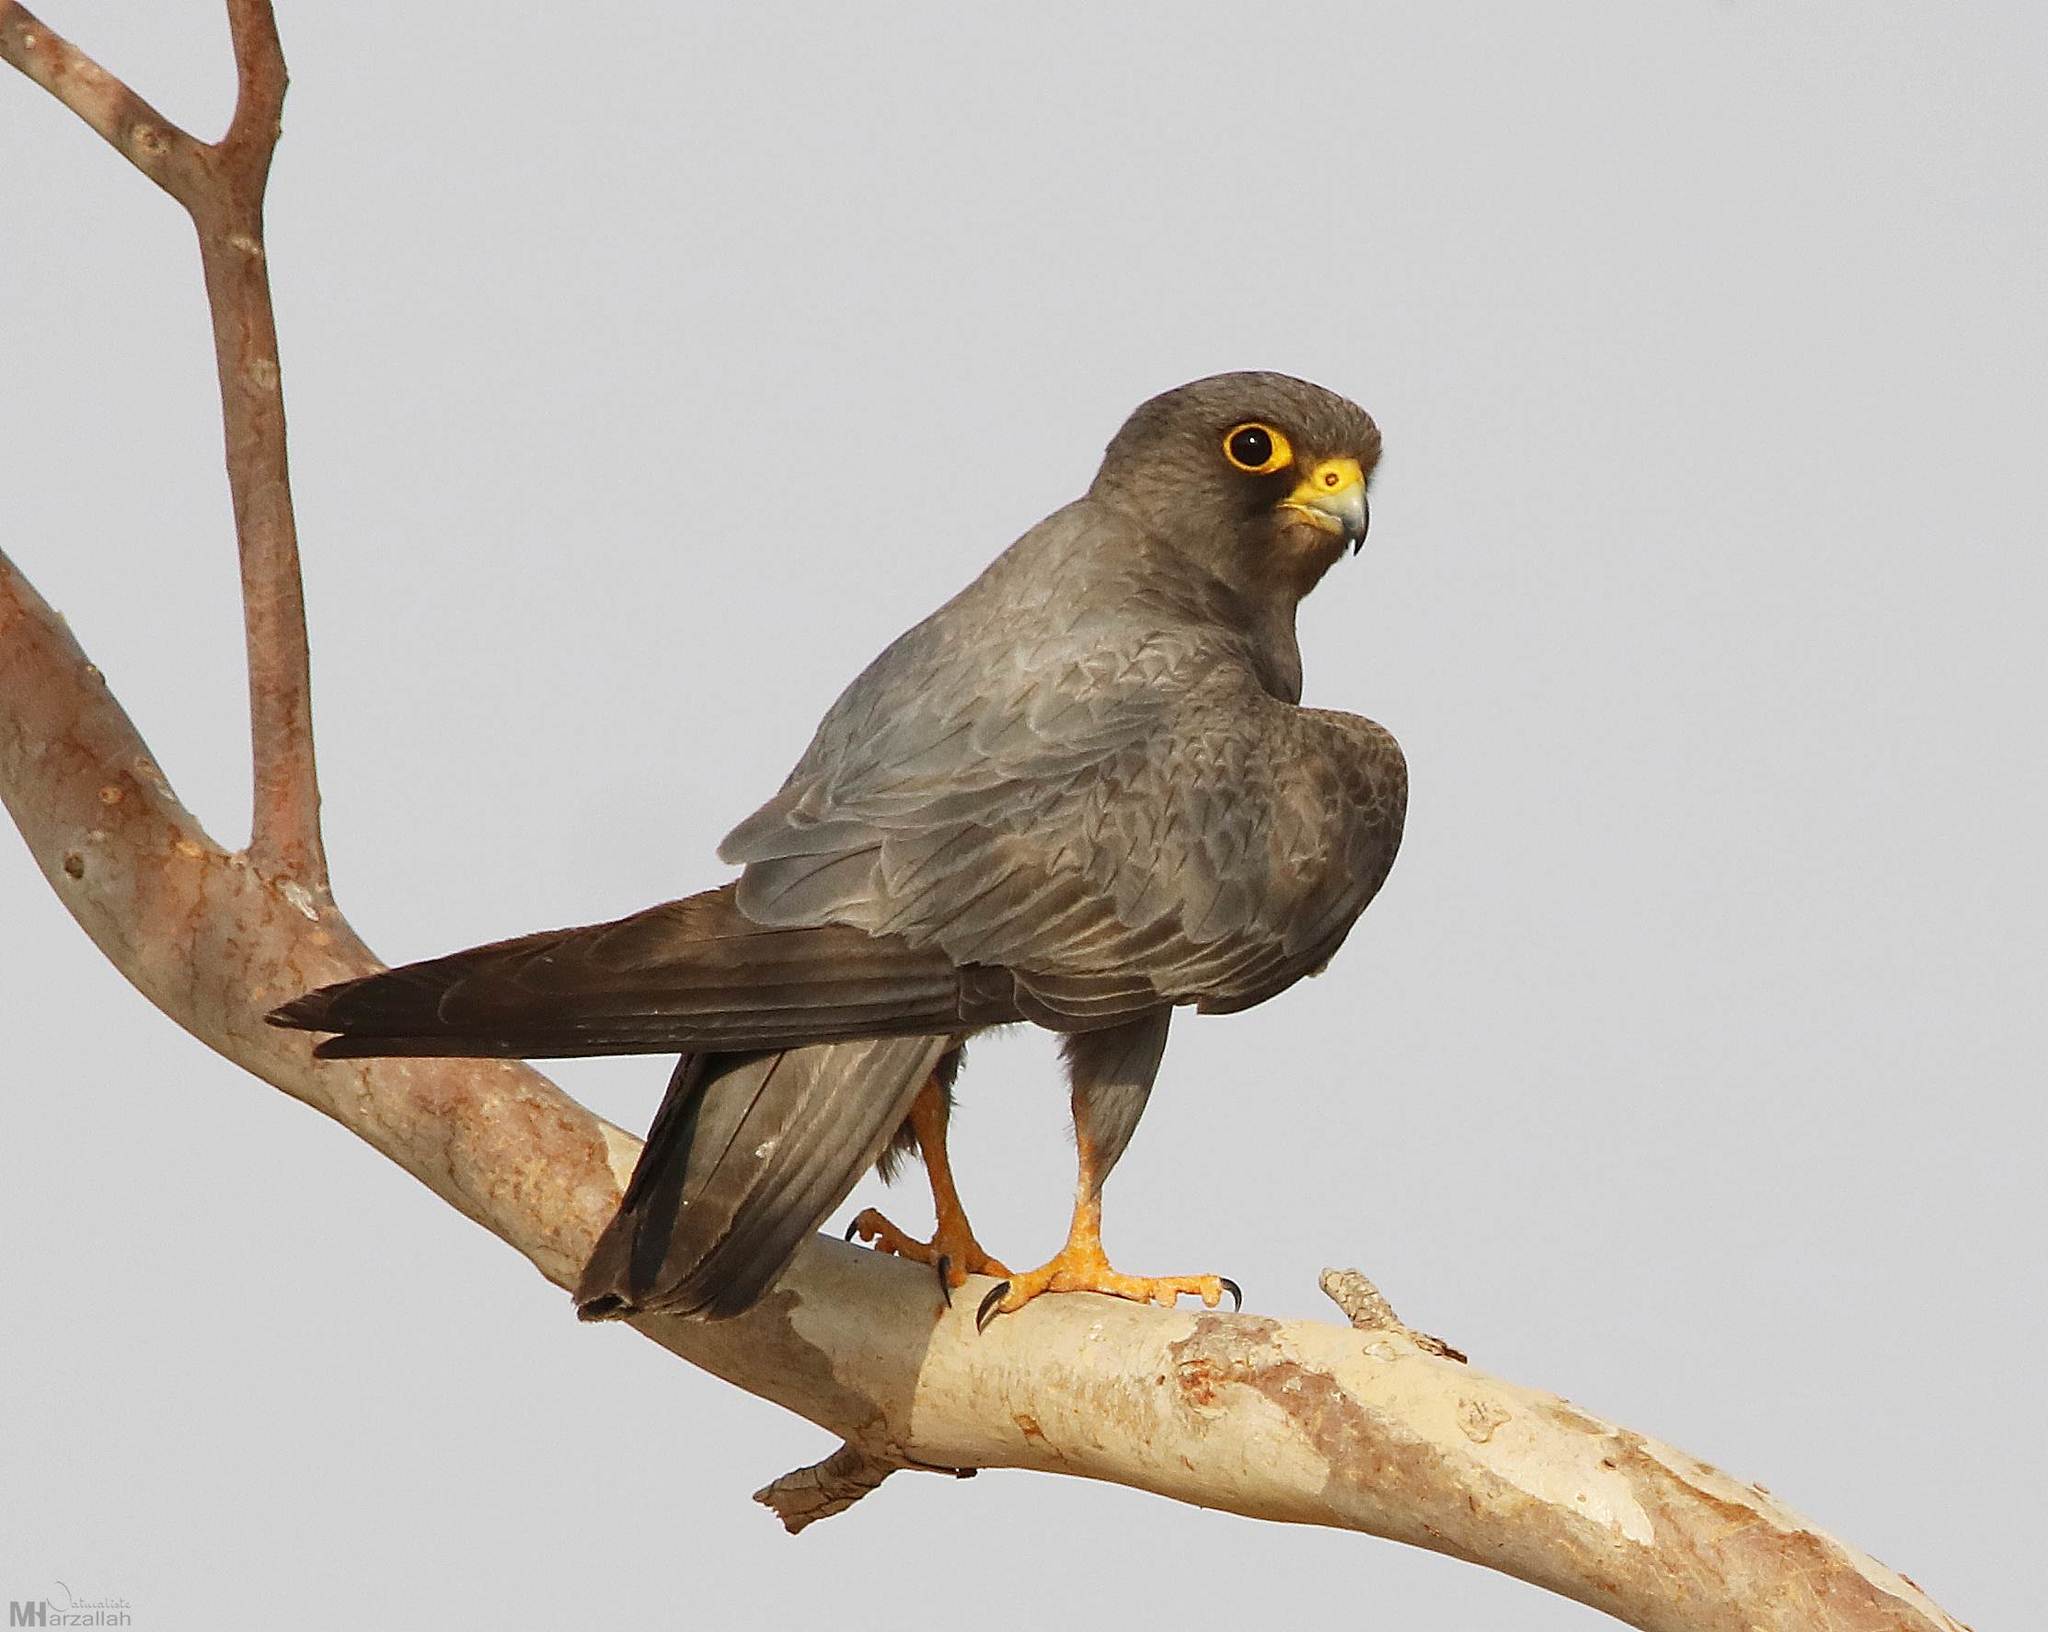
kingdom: Animalia
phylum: Chordata
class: Aves
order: Falconiformes
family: Falconidae
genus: Falco
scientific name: Falco concolor
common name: Sooty falcon
